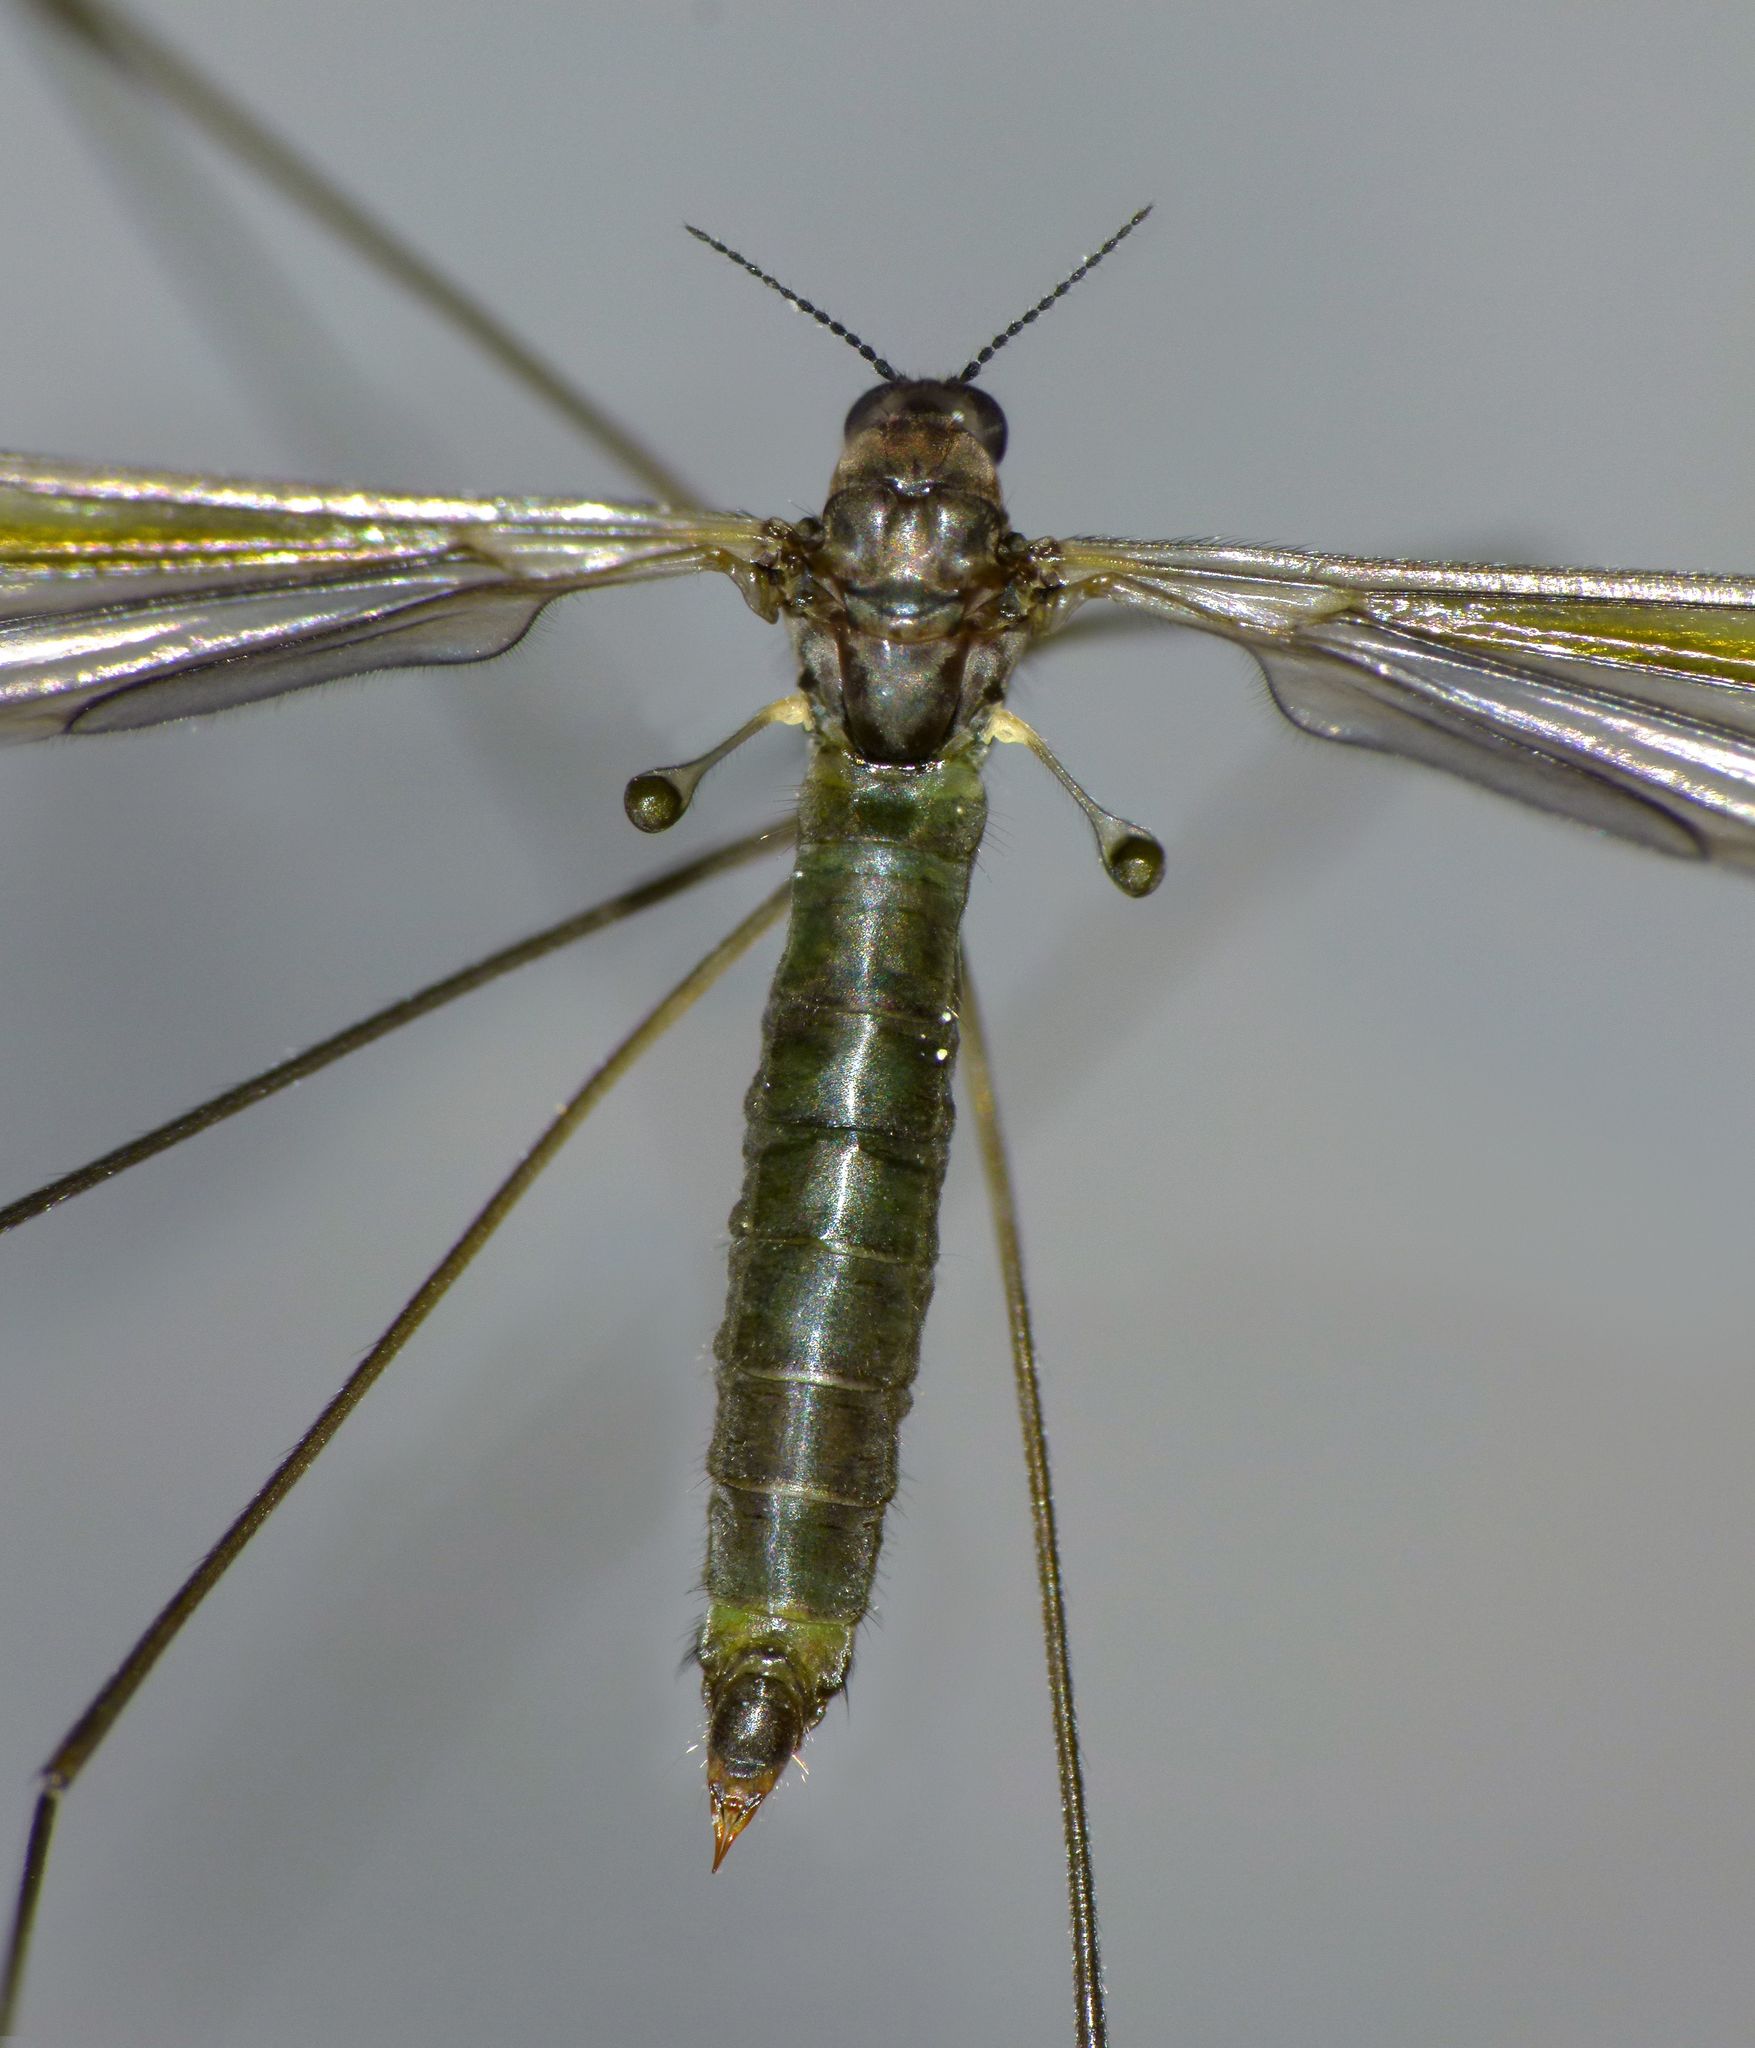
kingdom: Animalia
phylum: Arthropoda
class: Insecta
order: Diptera
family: Limoniidae
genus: Libnotes
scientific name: Libnotes falcata
